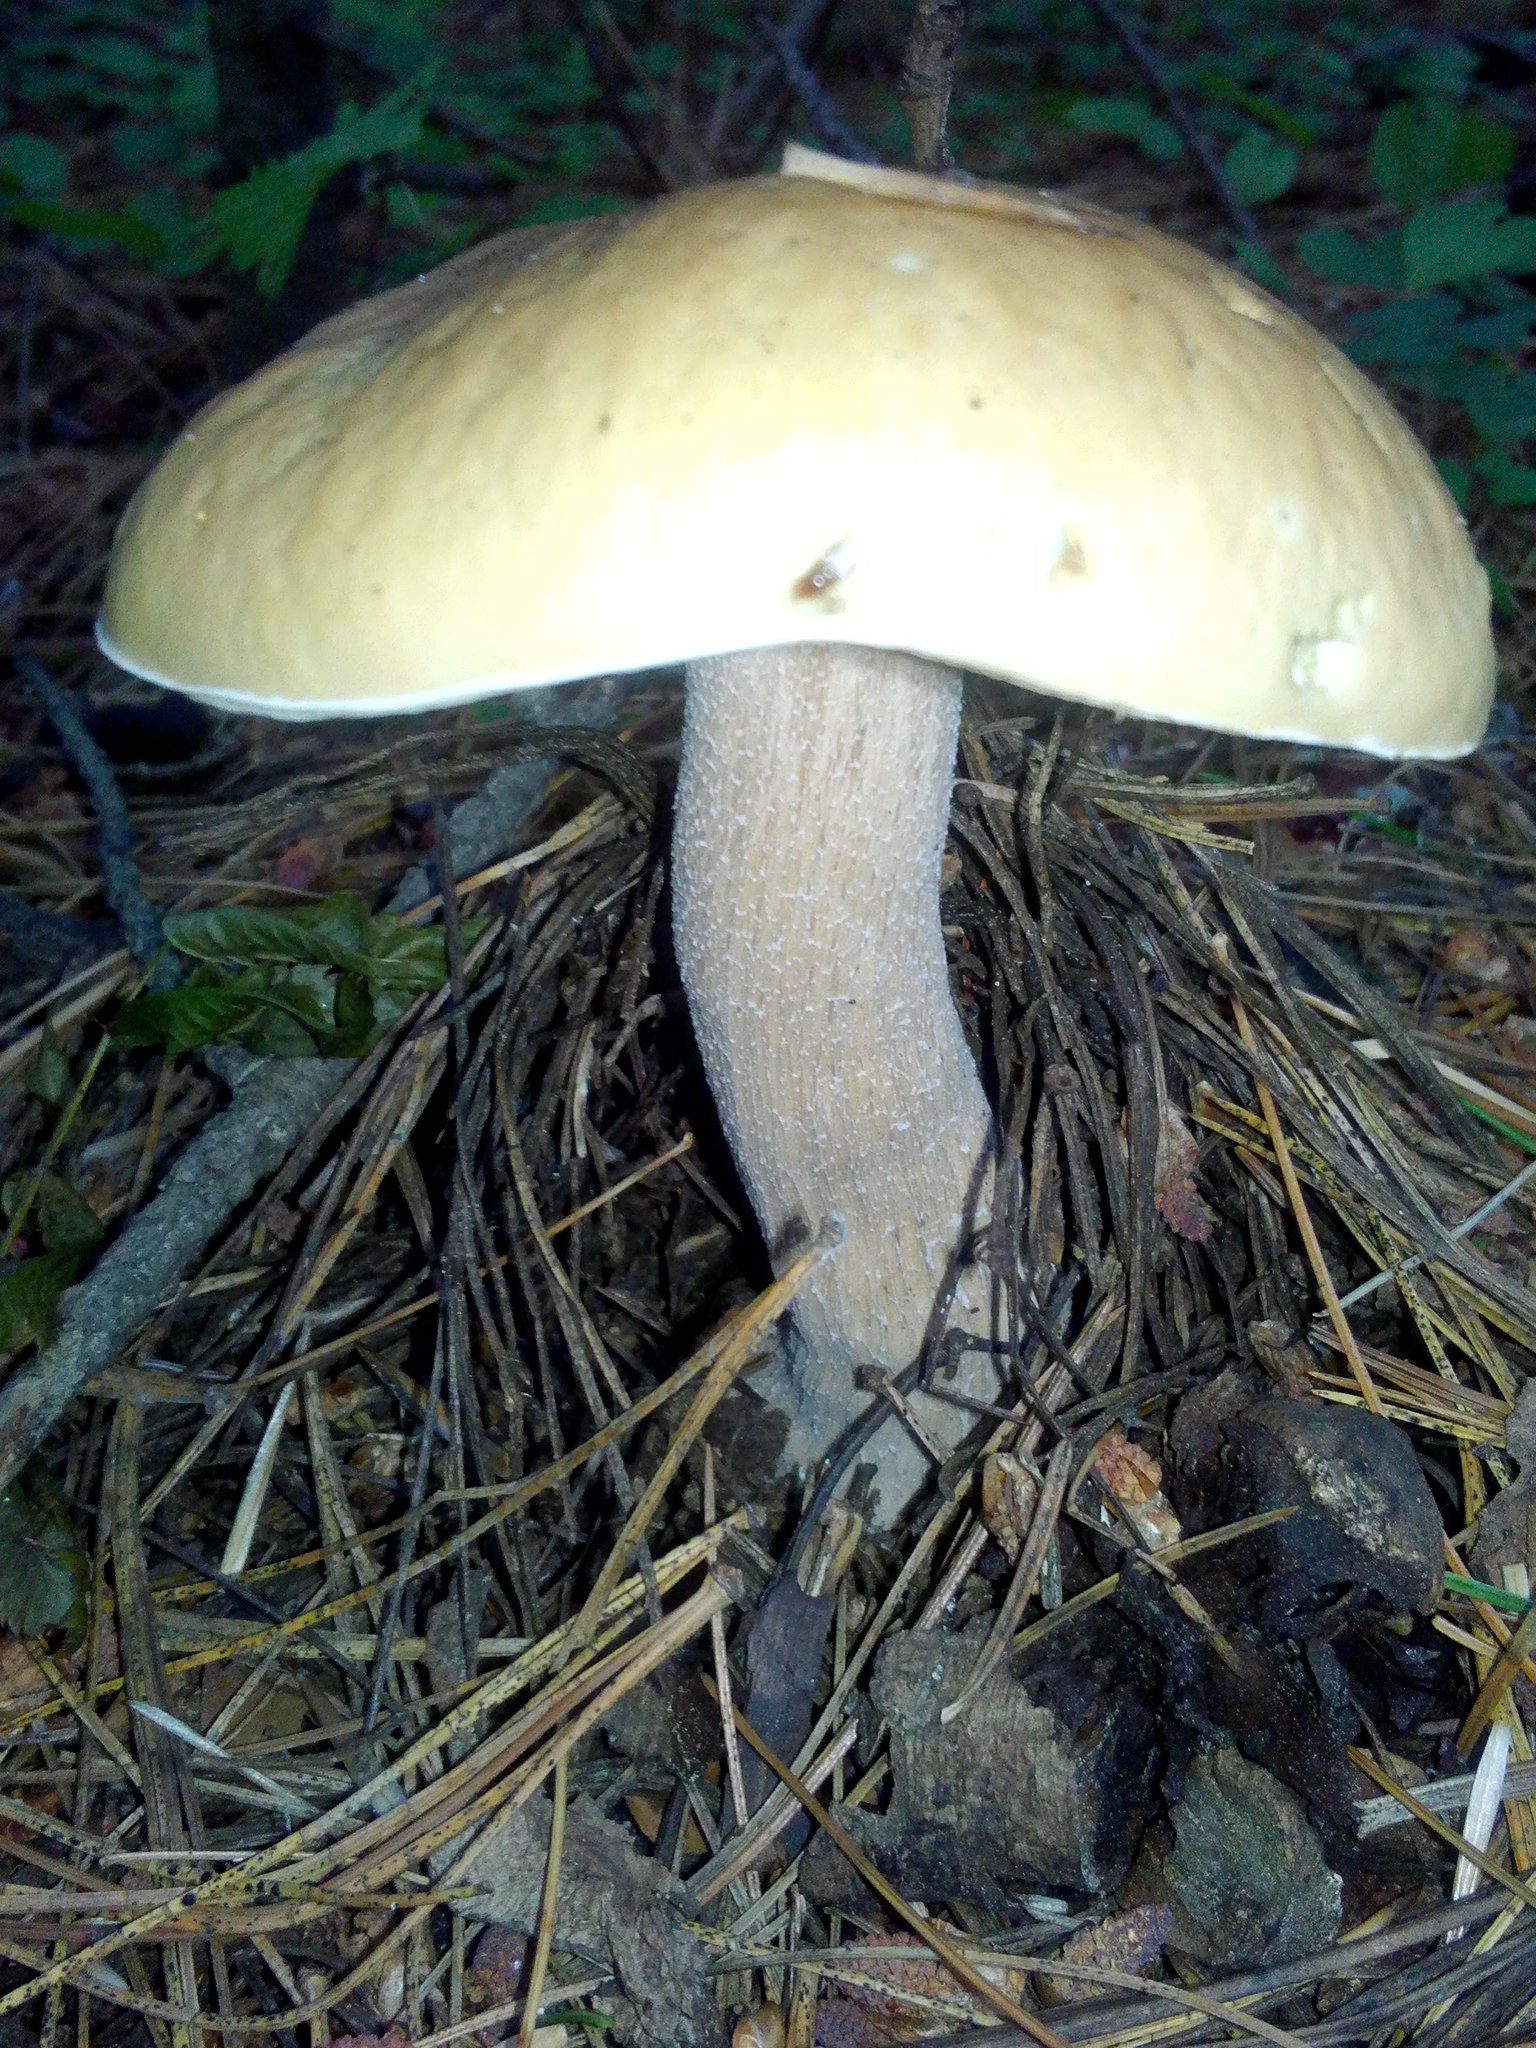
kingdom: Fungi
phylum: Basidiomycota
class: Agaricomycetes
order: Boletales
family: Boletaceae
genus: Boletus
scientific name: Boletus edulis
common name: Cep
